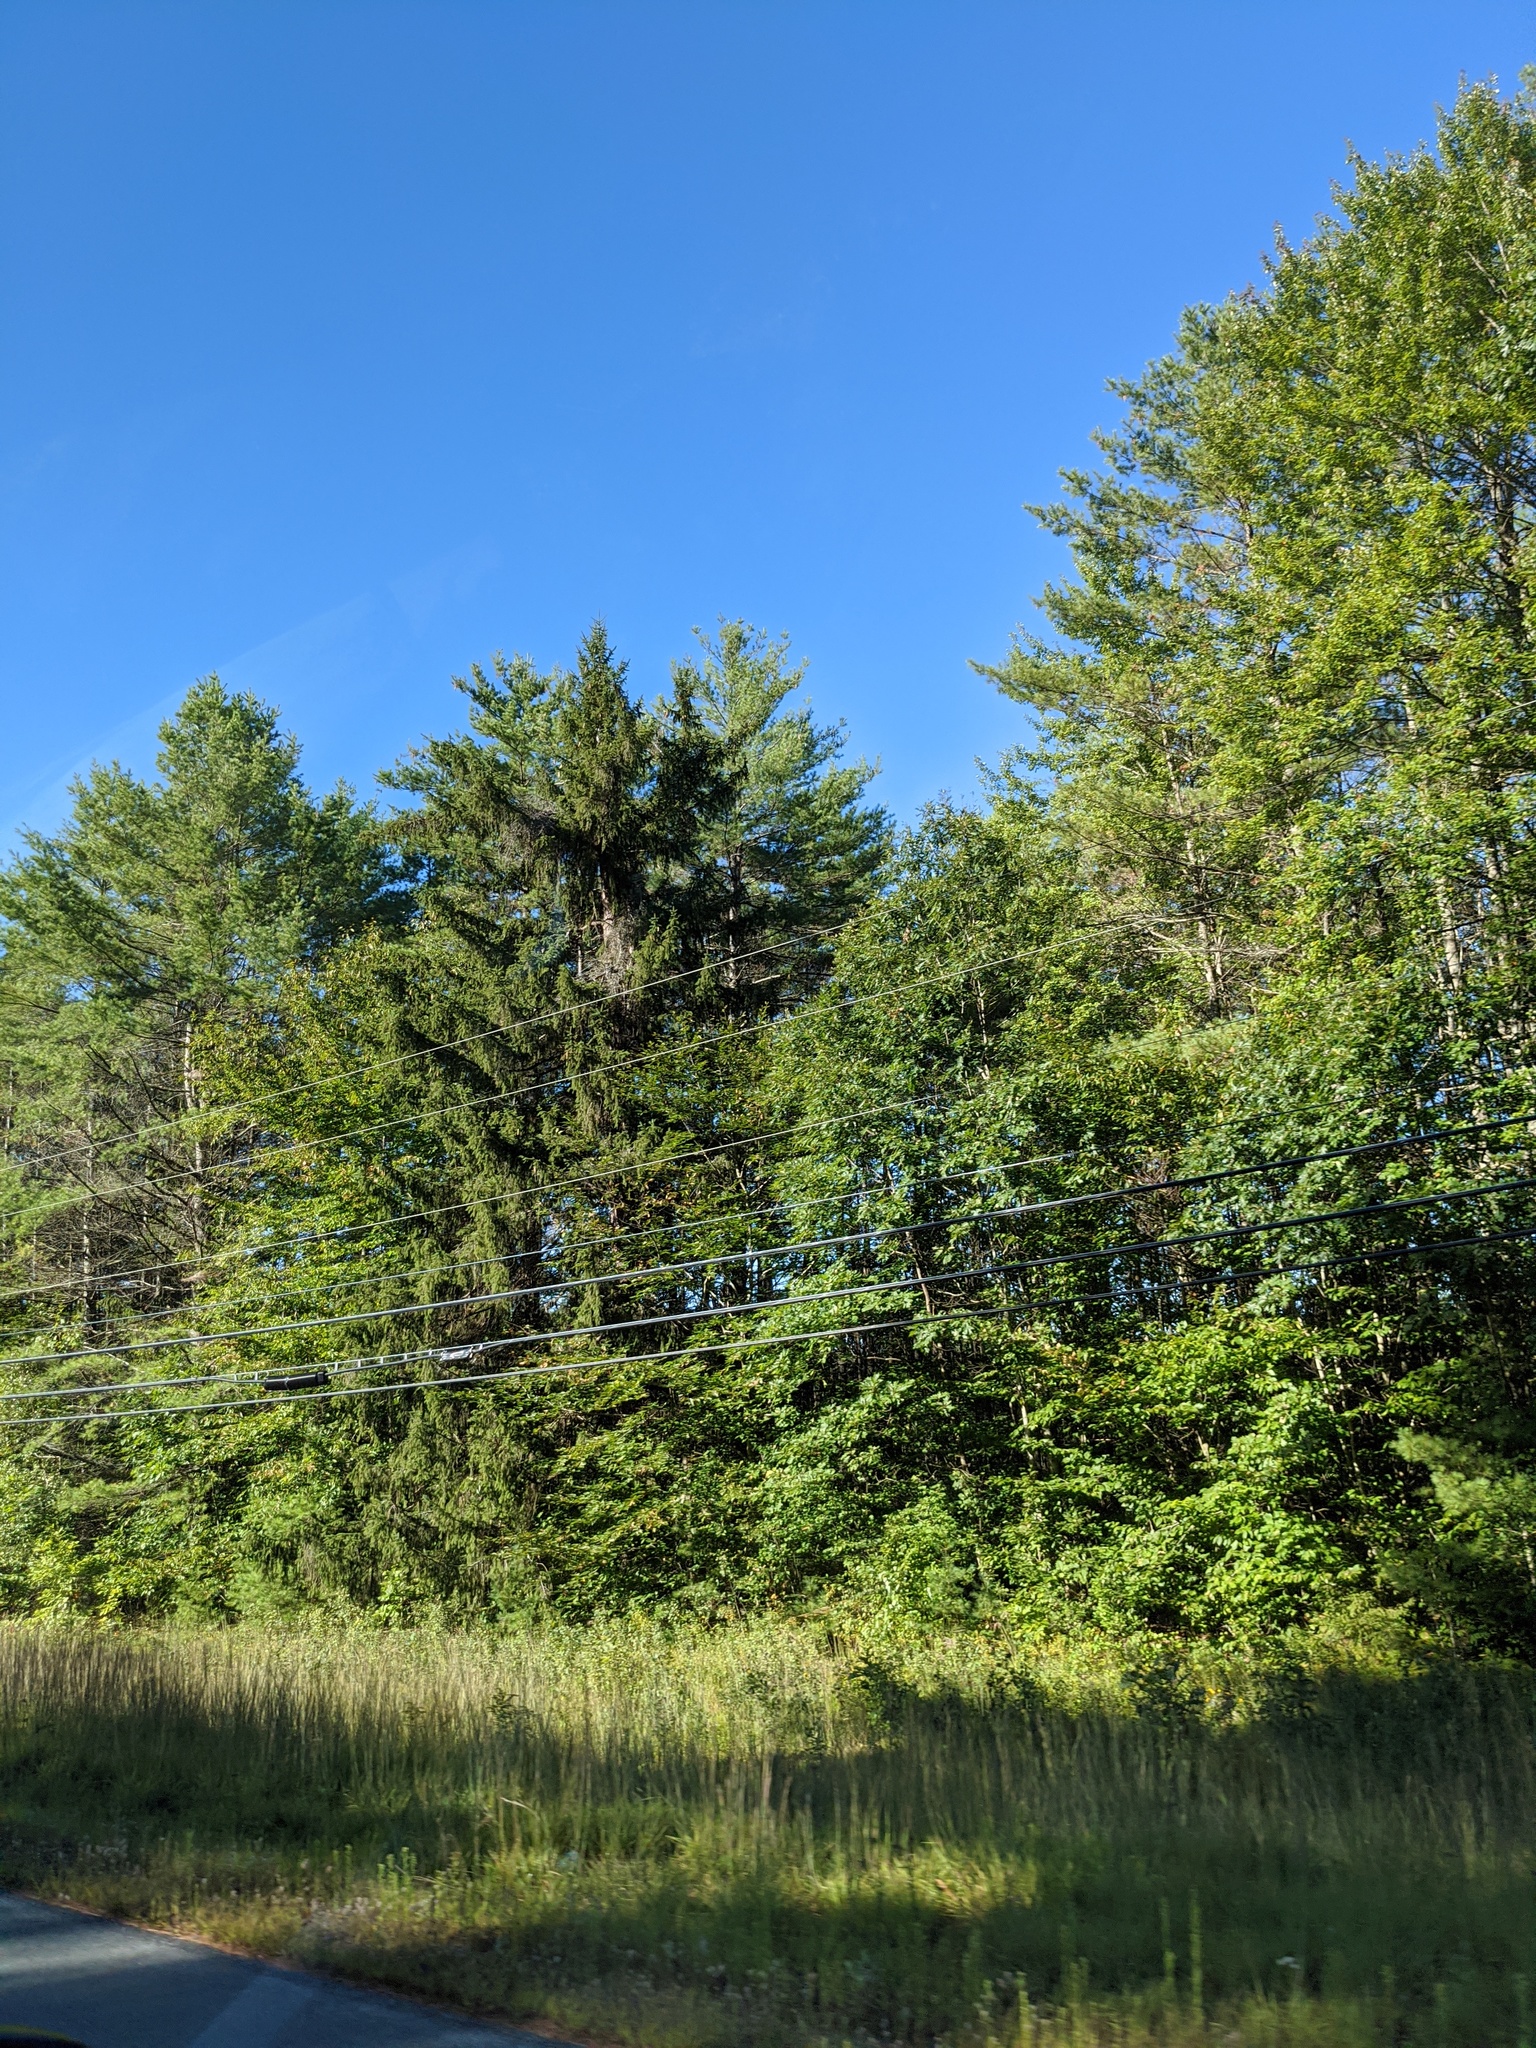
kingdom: Plantae
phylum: Tracheophyta
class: Pinopsida
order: Pinales
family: Pinaceae
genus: Picea
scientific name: Picea abies
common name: Norway spruce
